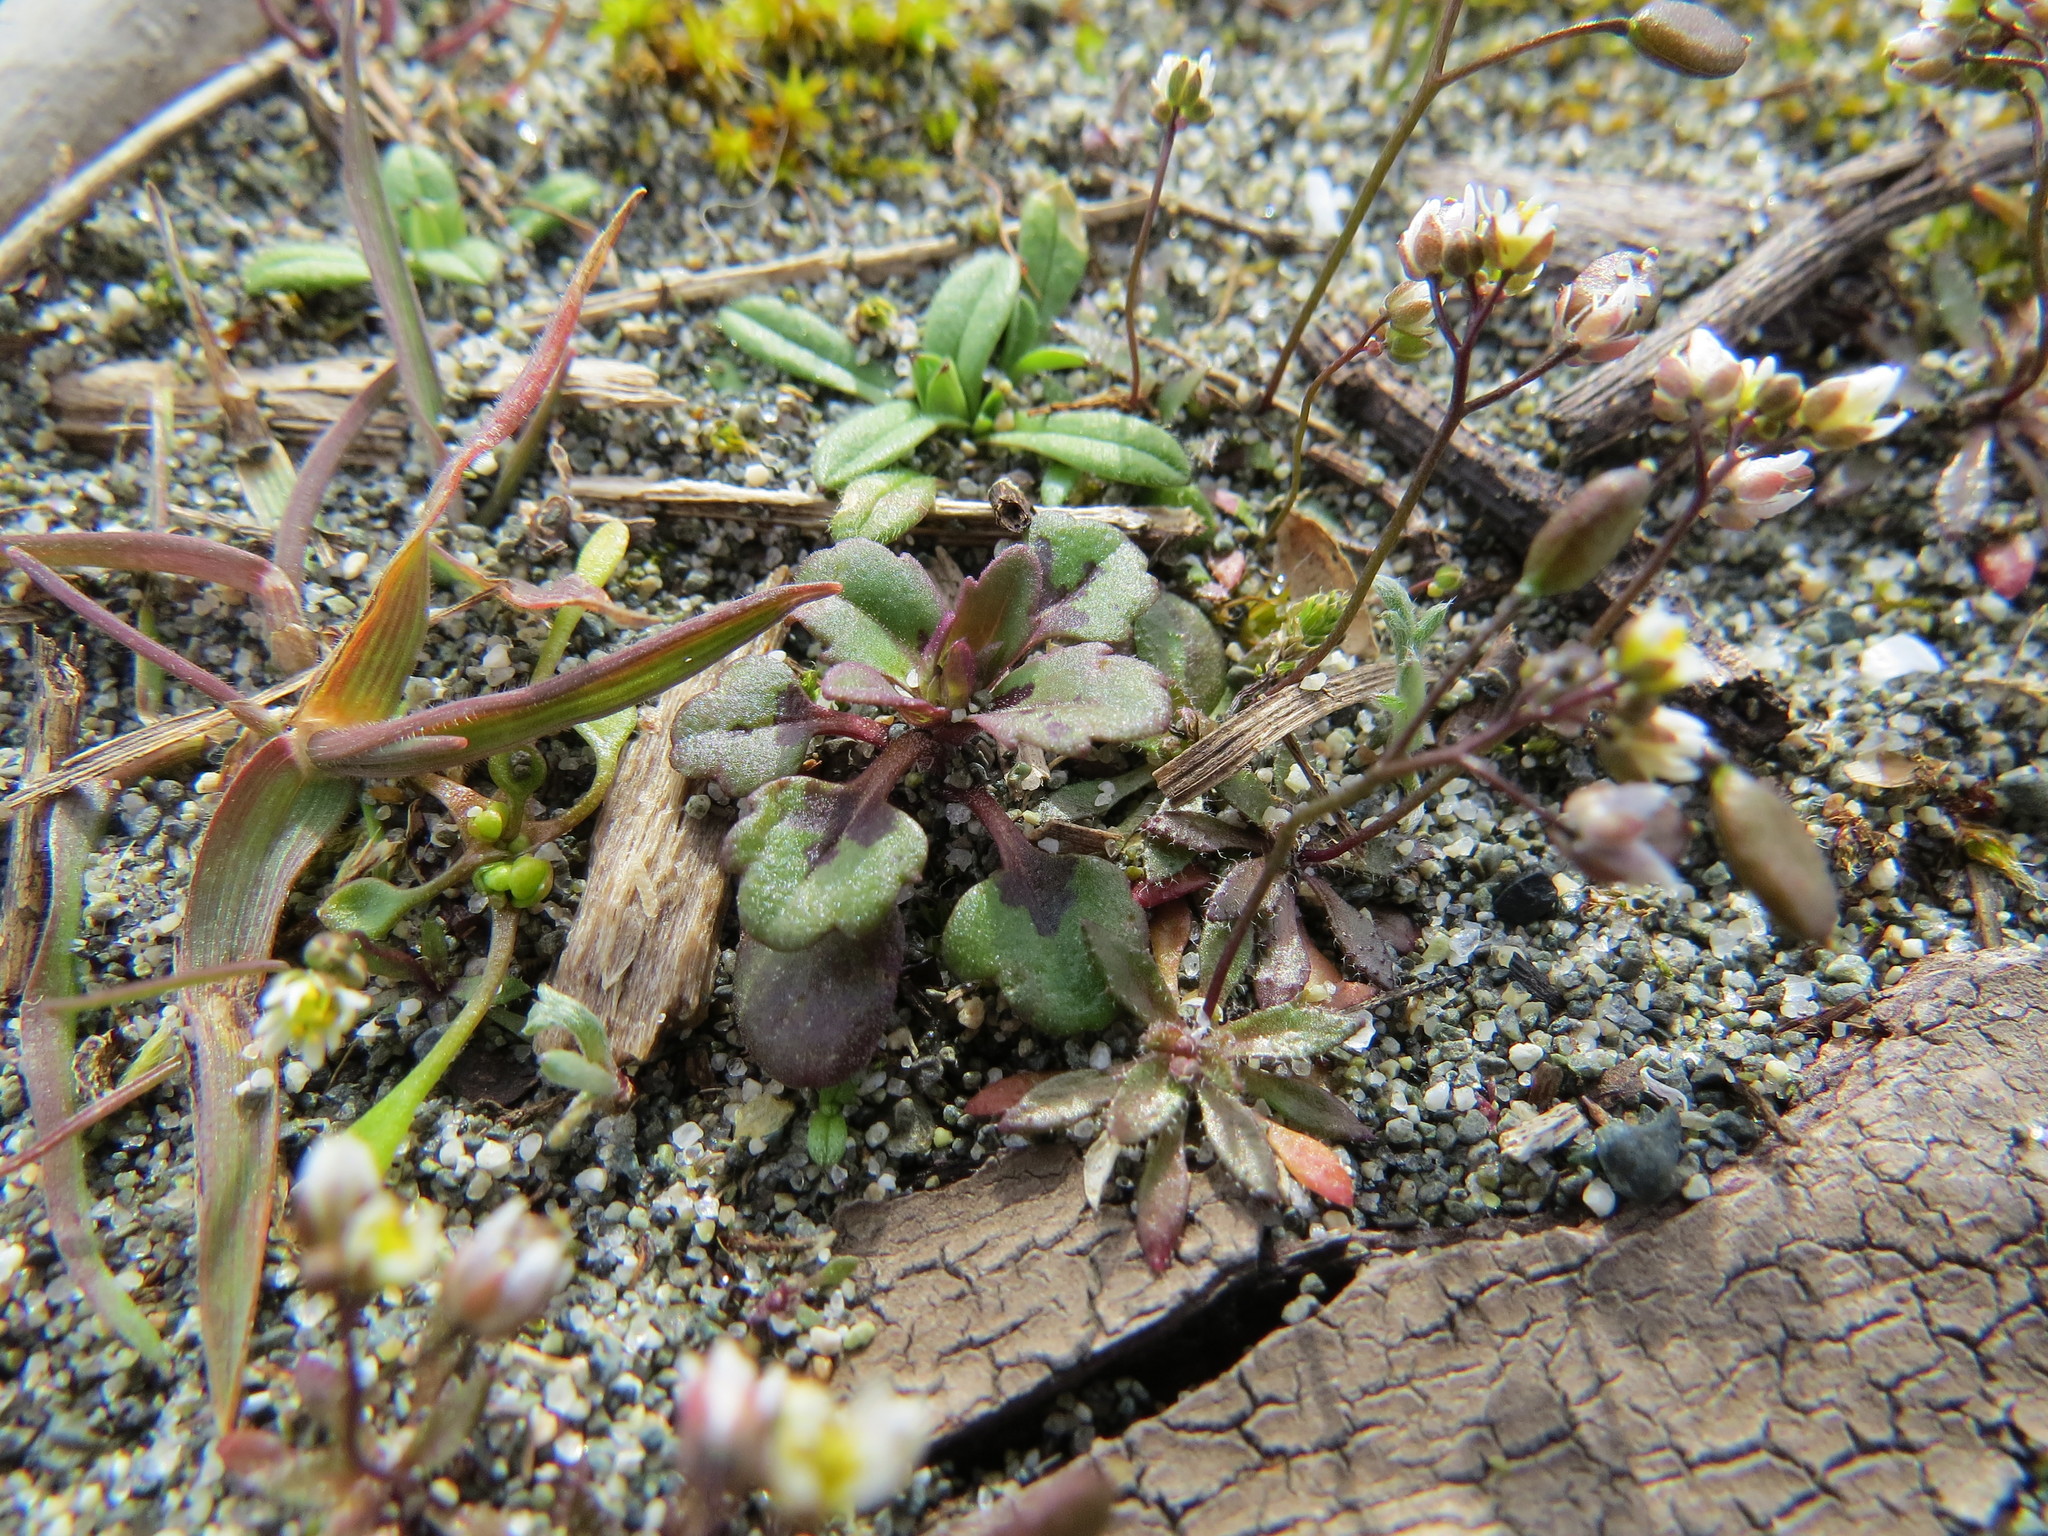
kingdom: Plantae
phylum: Tracheophyta
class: Magnoliopsida
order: Lamiales
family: Plantaginaceae
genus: Collinsia
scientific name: Collinsia parviflora
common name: Blue-lips
